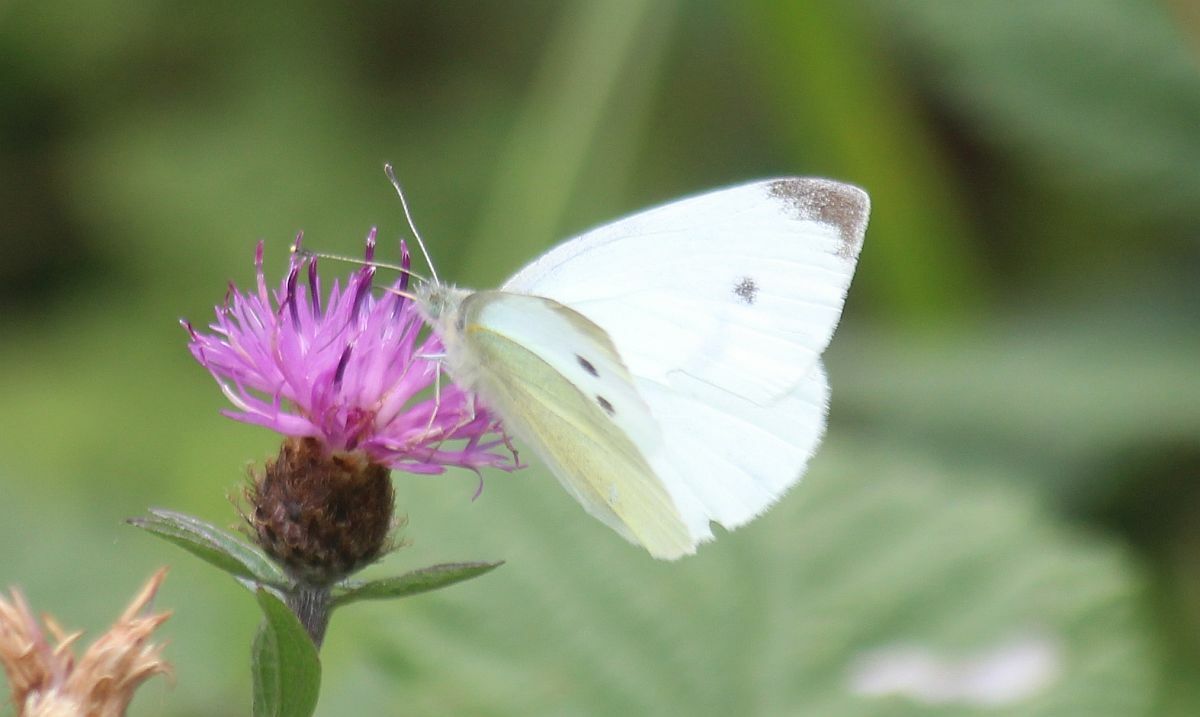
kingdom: Animalia
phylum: Arthropoda
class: Insecta
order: Lepidoptera
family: Pieridae
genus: Pieris
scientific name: Pieris rapae
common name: Small white
